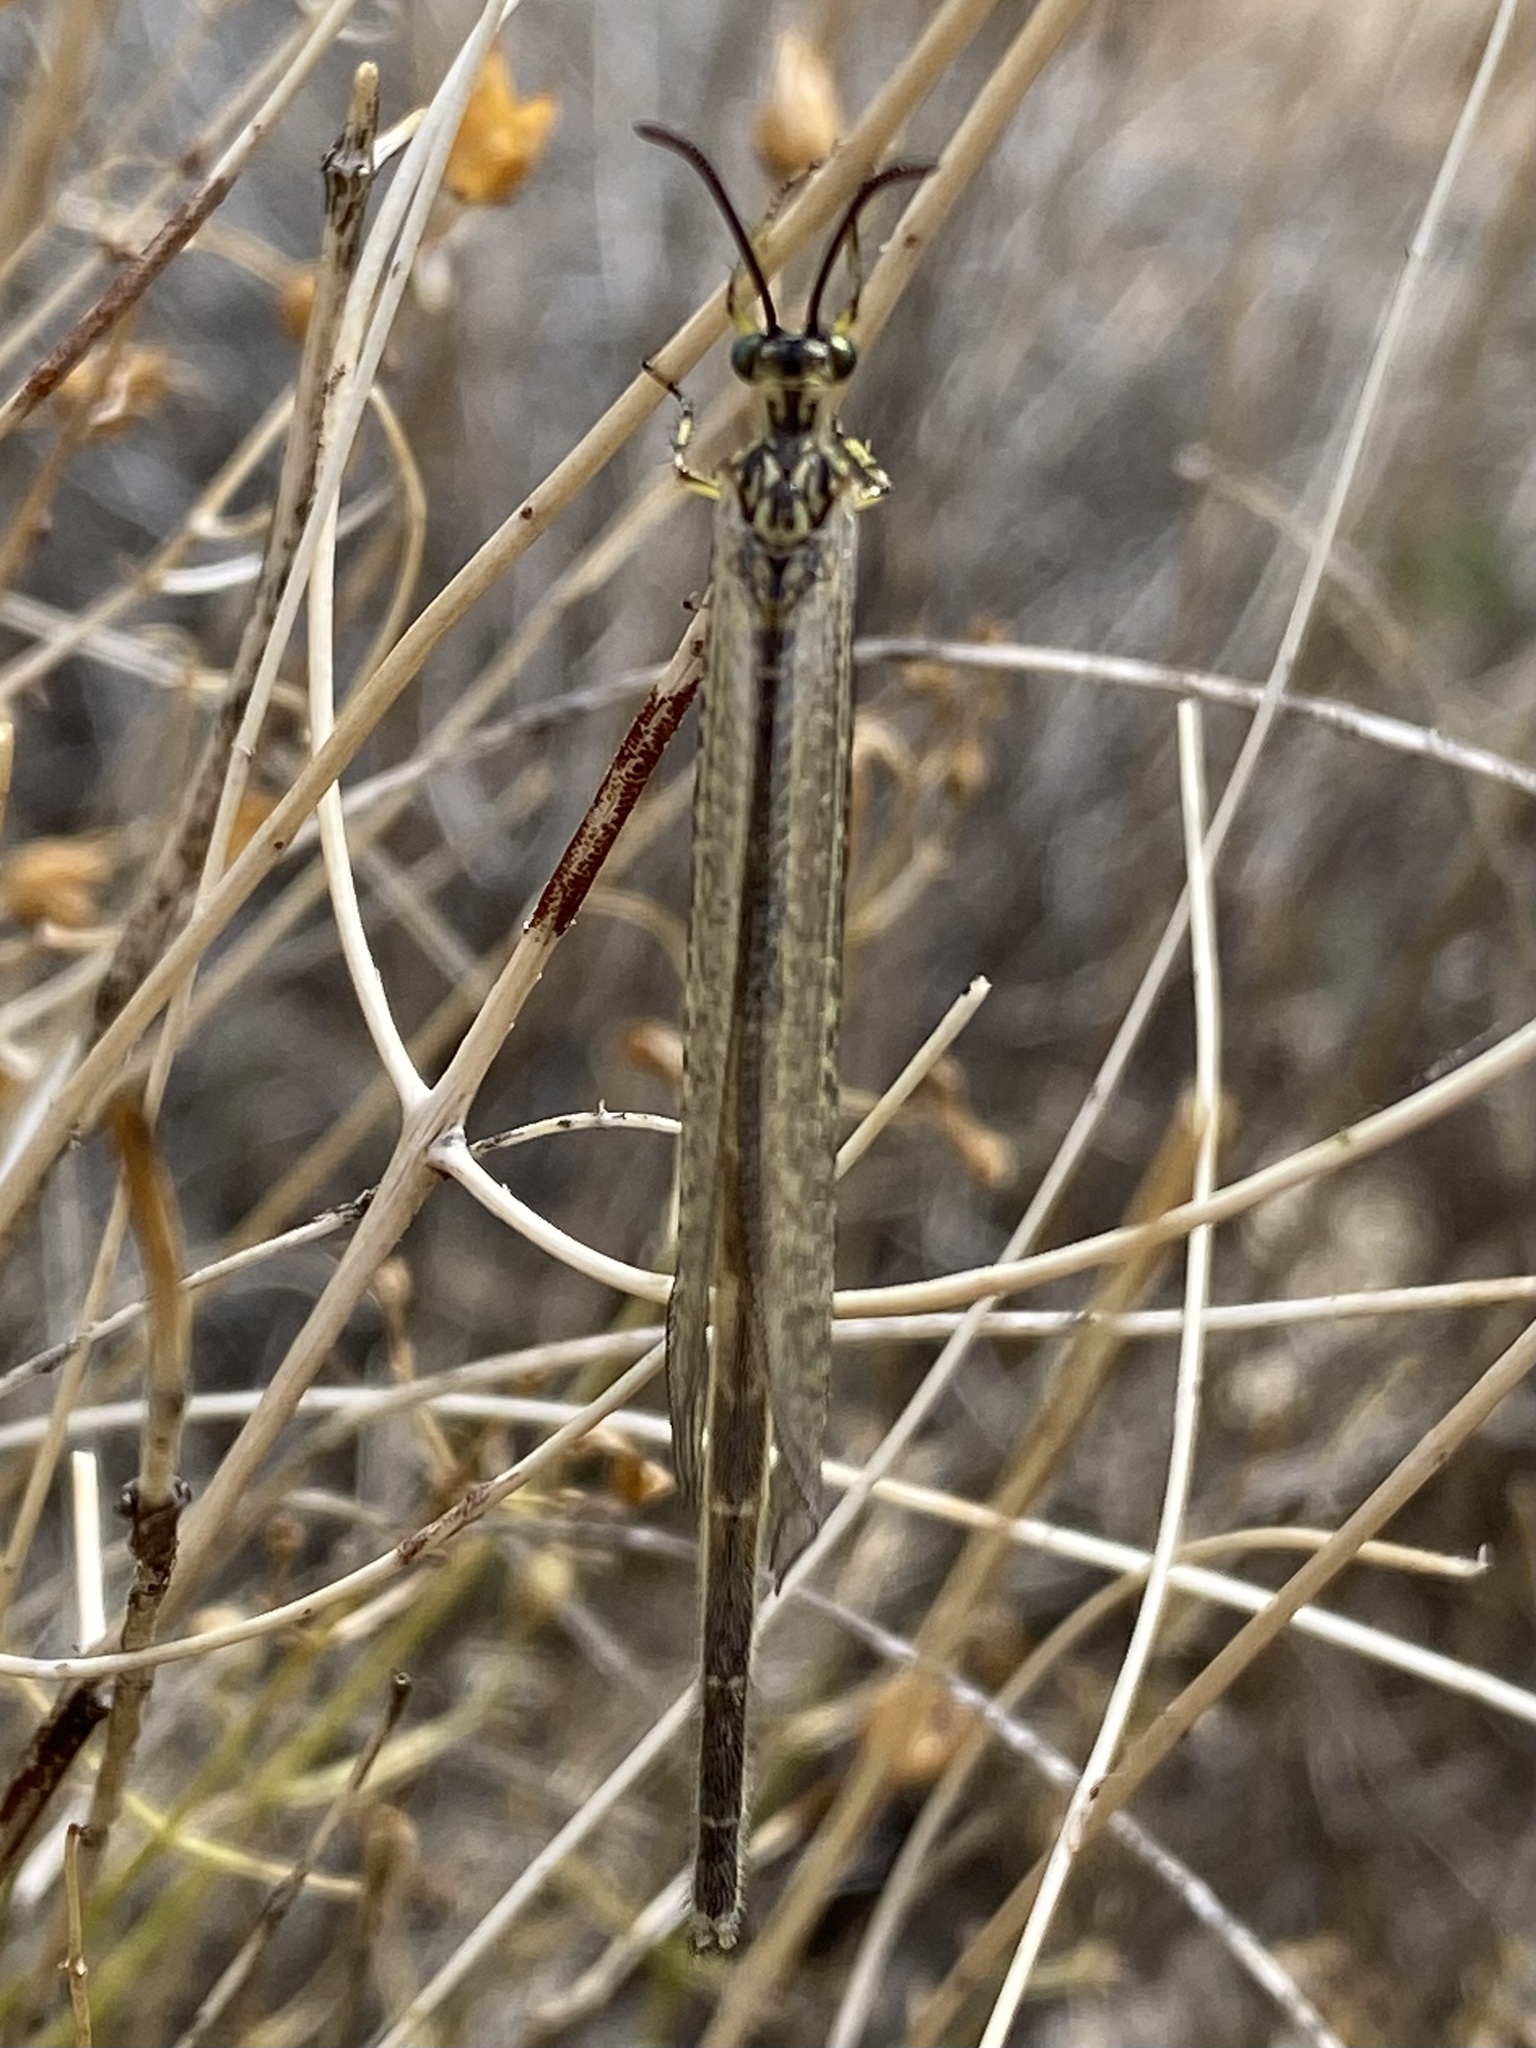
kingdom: Animalia
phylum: Arthropoda
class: Insecta
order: Neuroptera
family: Myrmeleontidae
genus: Scotoleon
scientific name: Scotoleon nigrilabris
